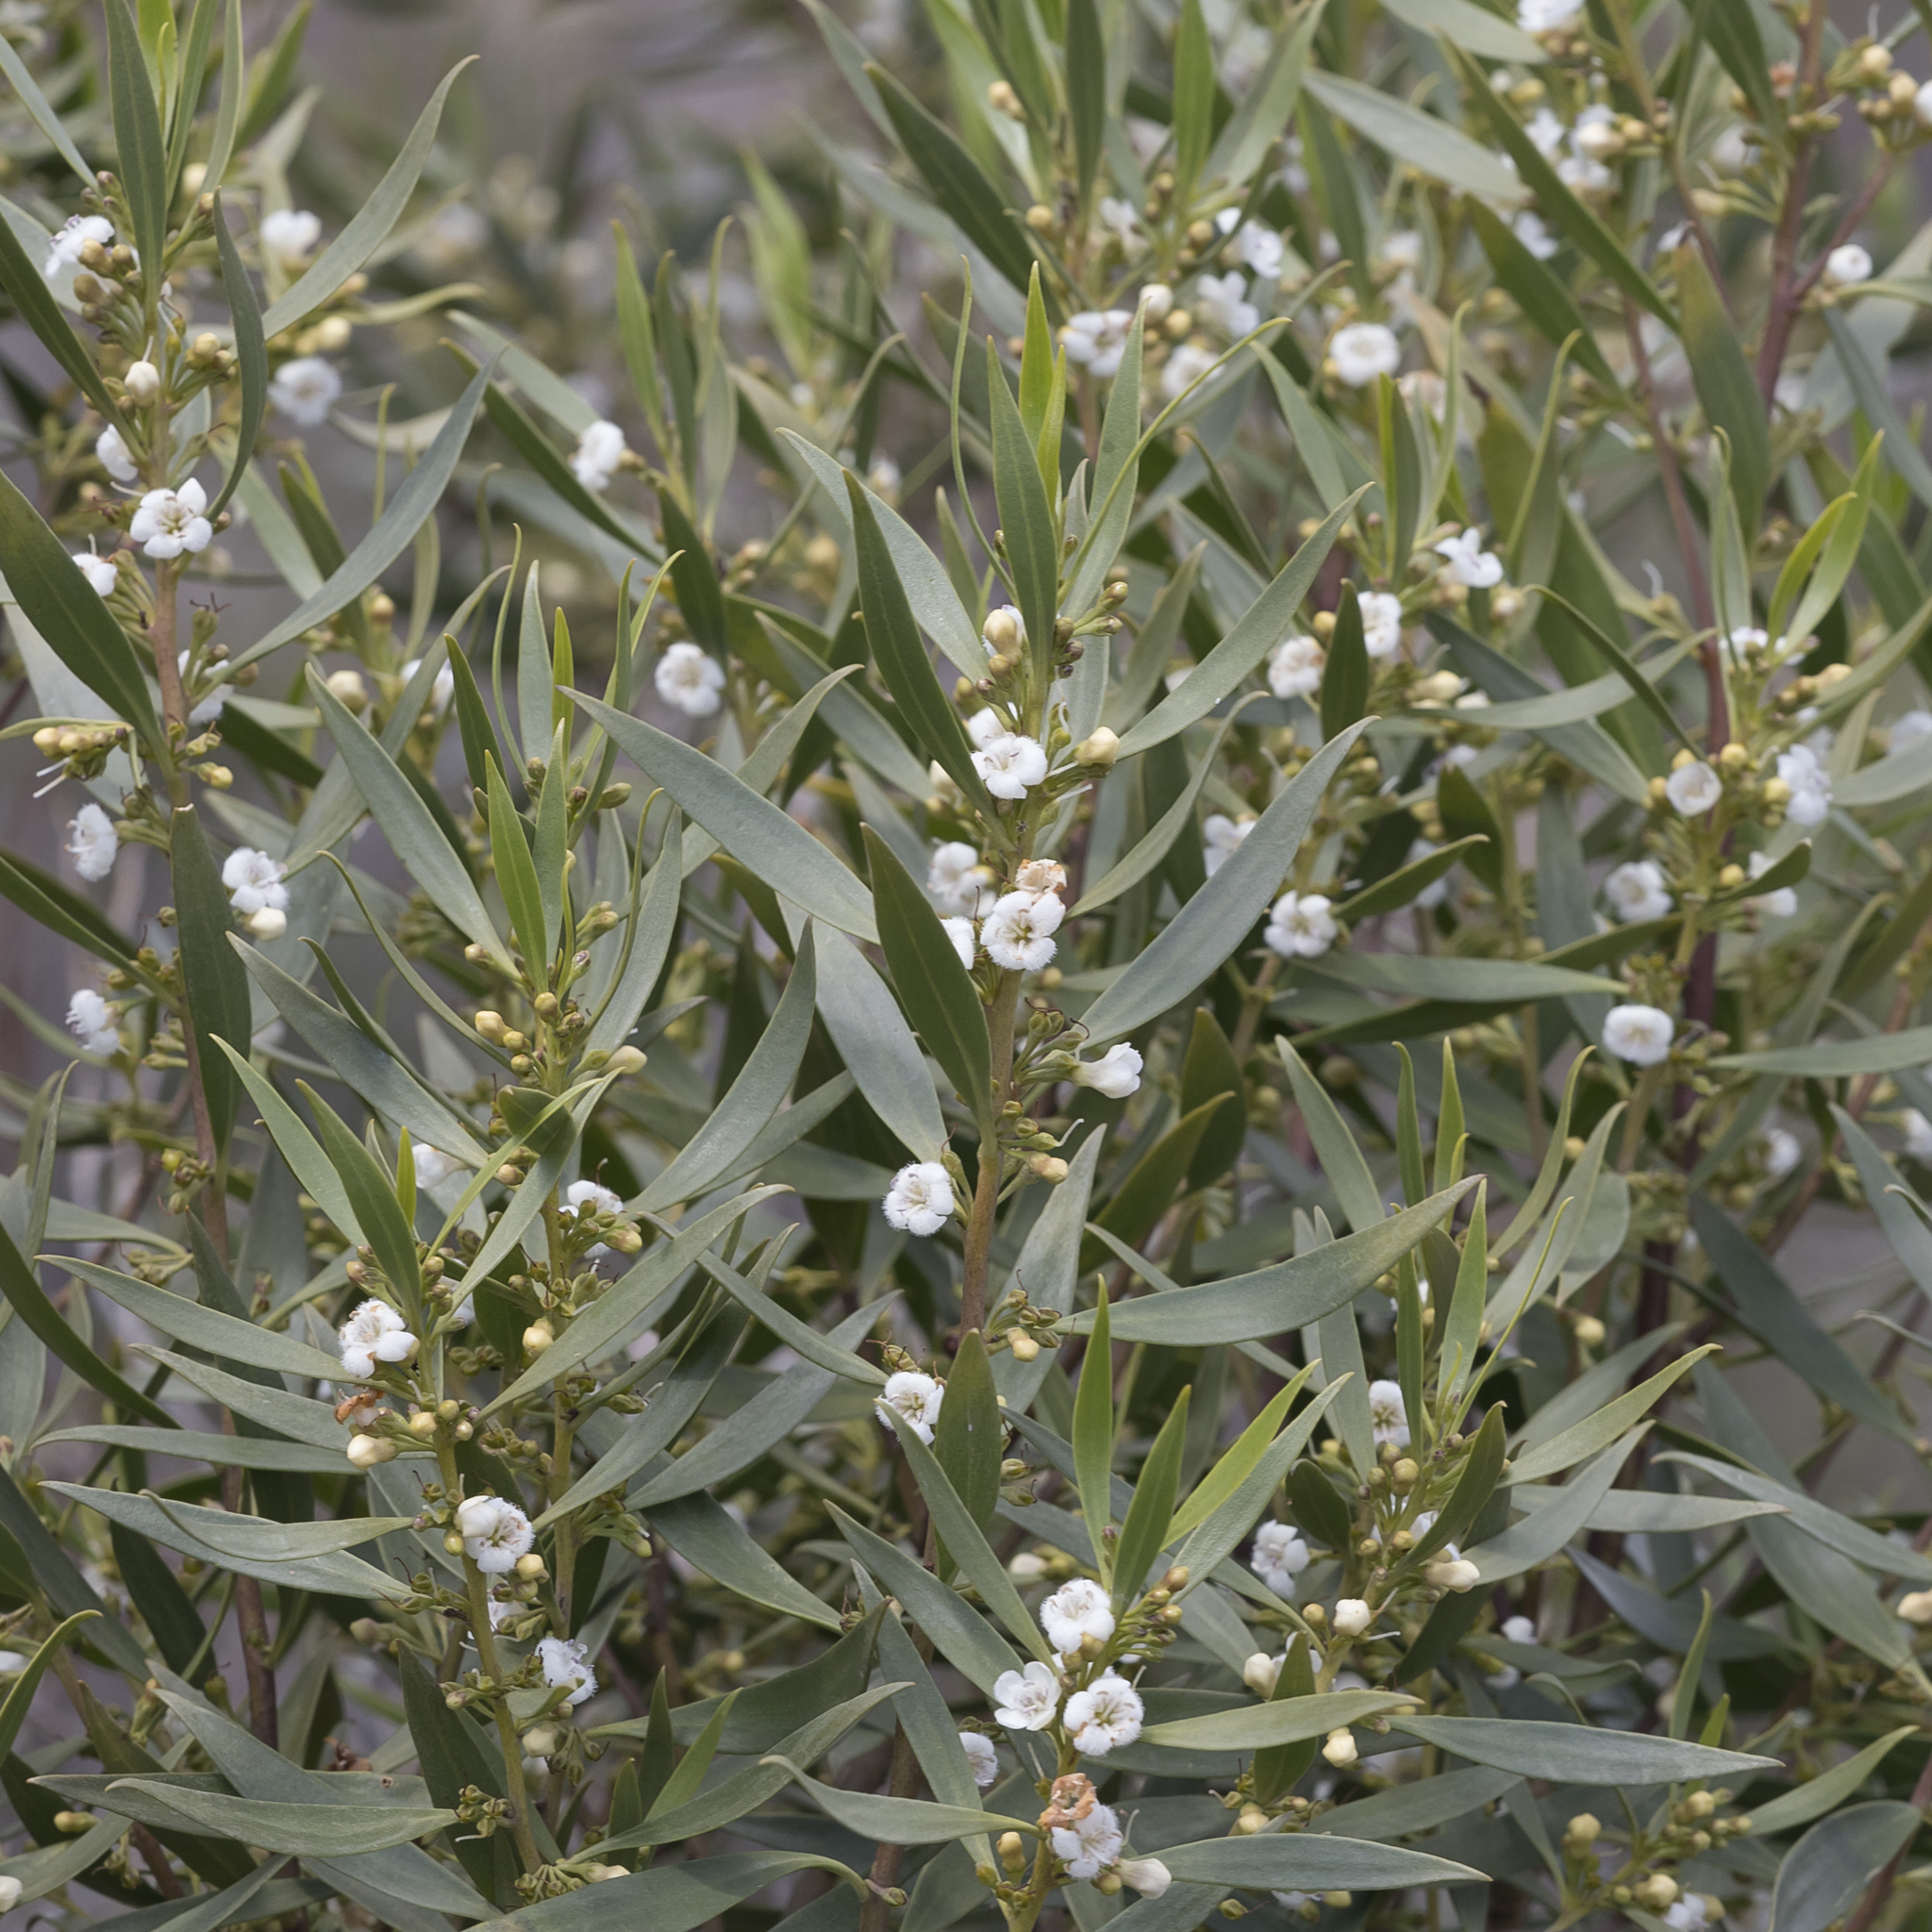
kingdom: Plantae
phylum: Tracheophyta
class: Magnoliopsida
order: Lamiales
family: Scrophulariaceae
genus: Myoporum
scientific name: Myoporum montanum
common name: Waterbush
